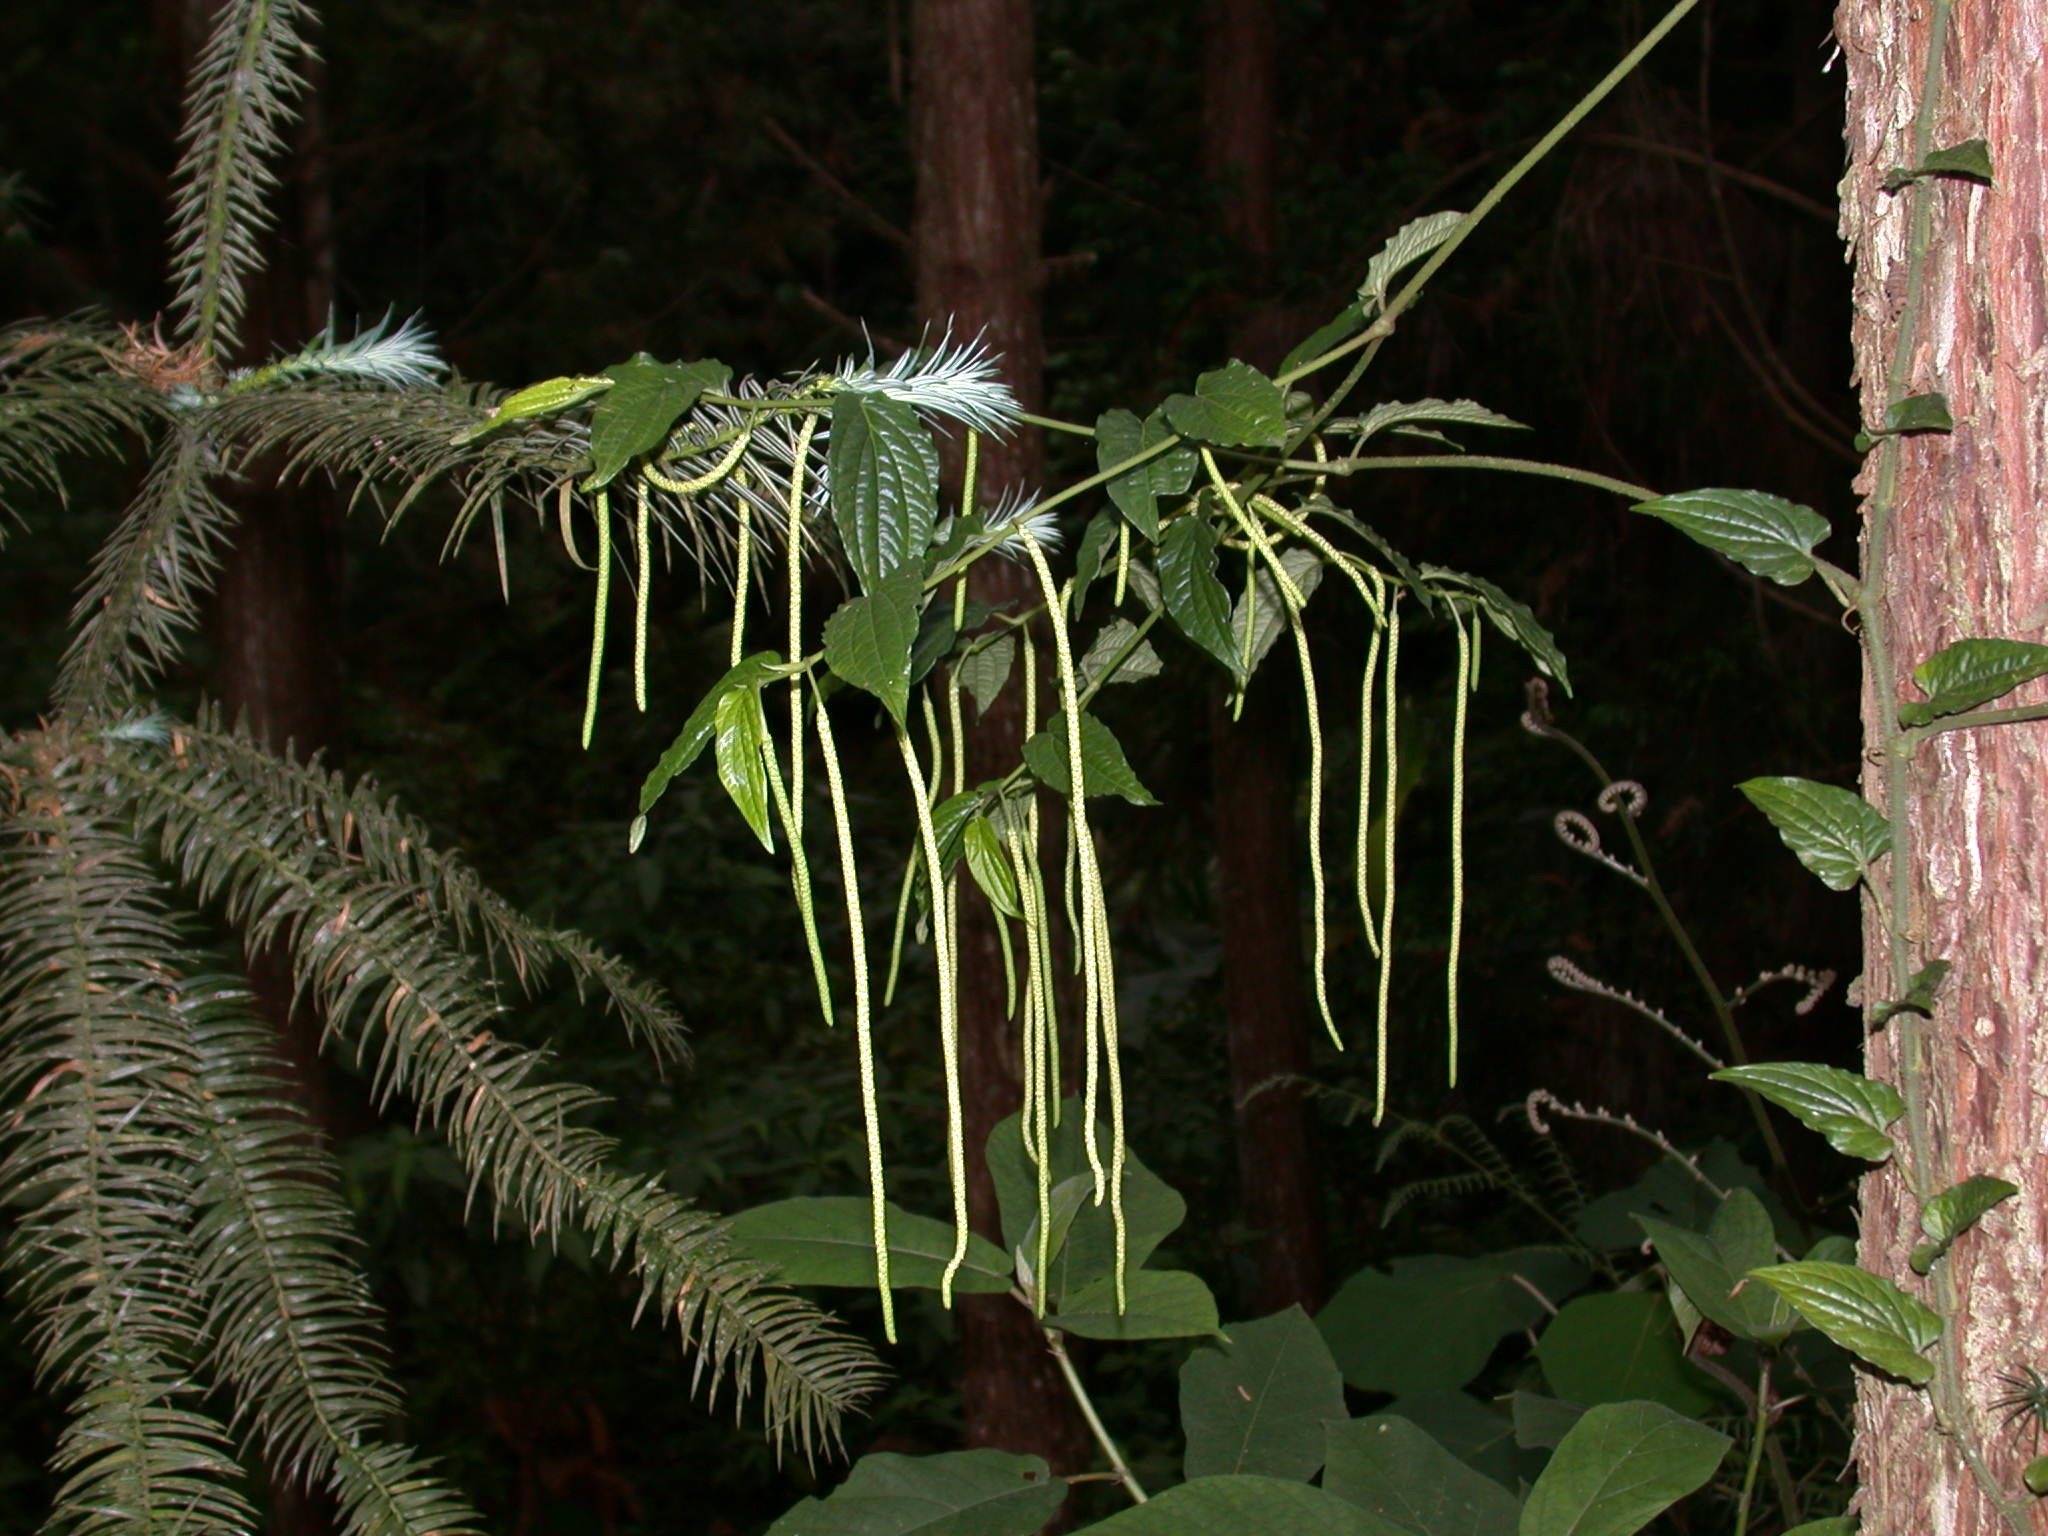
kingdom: Plantae
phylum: Tracheophyta
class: Magnoliopsida
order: Piperales
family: Piperaceae
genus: Piper
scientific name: Piper sintenense
